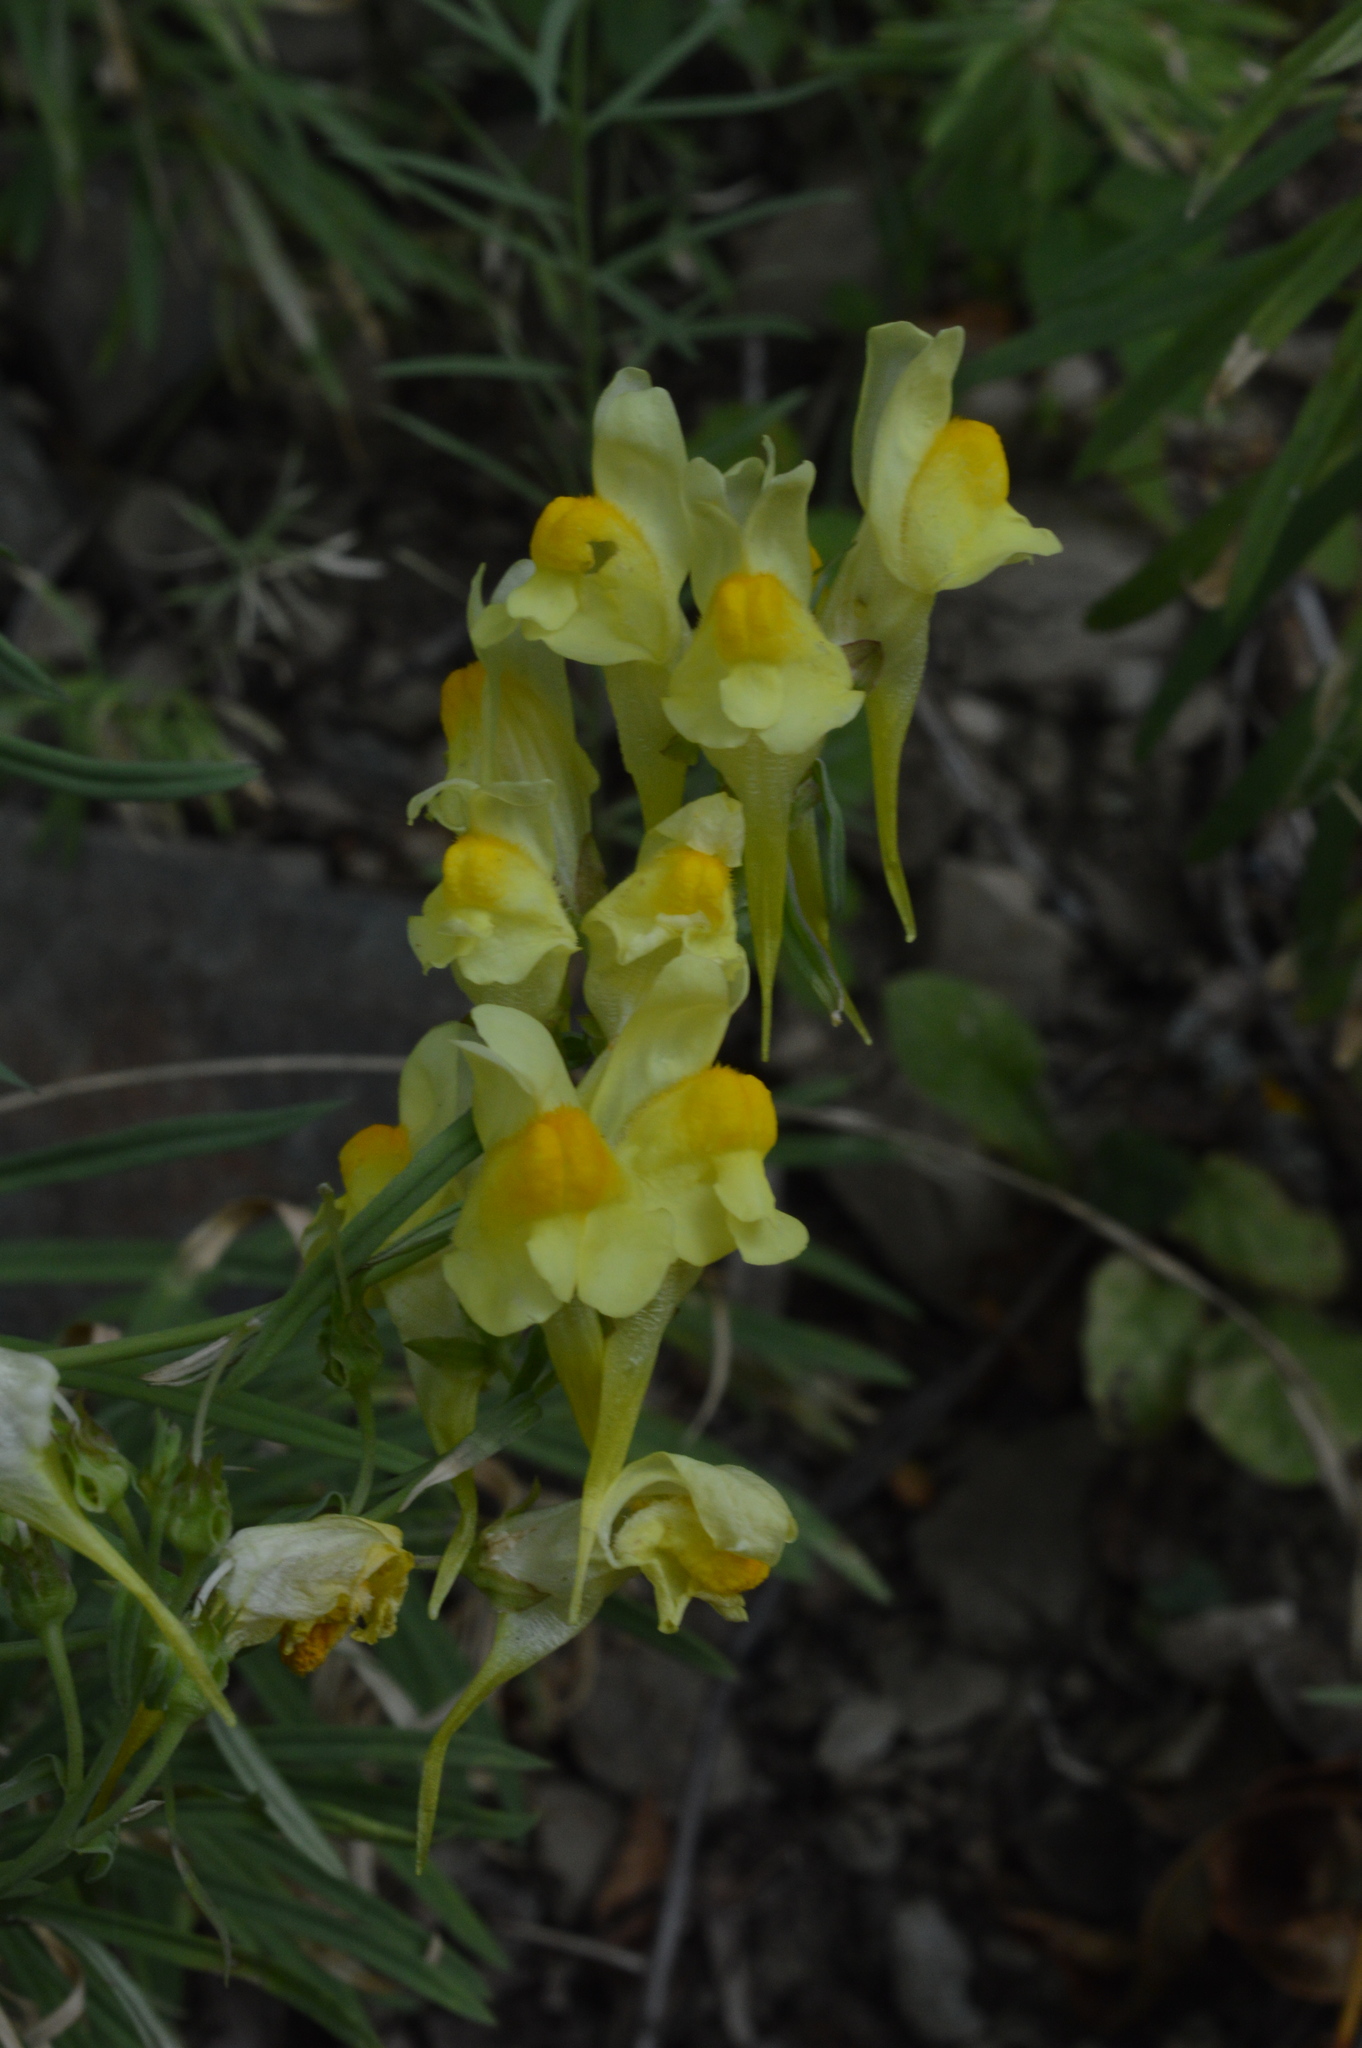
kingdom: Plantae
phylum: Tracheophyta
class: Magnoliopsida
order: Lamiales
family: Plantaginaceae
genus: Linaria
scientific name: Linaria vulgaris
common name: Butter and eggs
